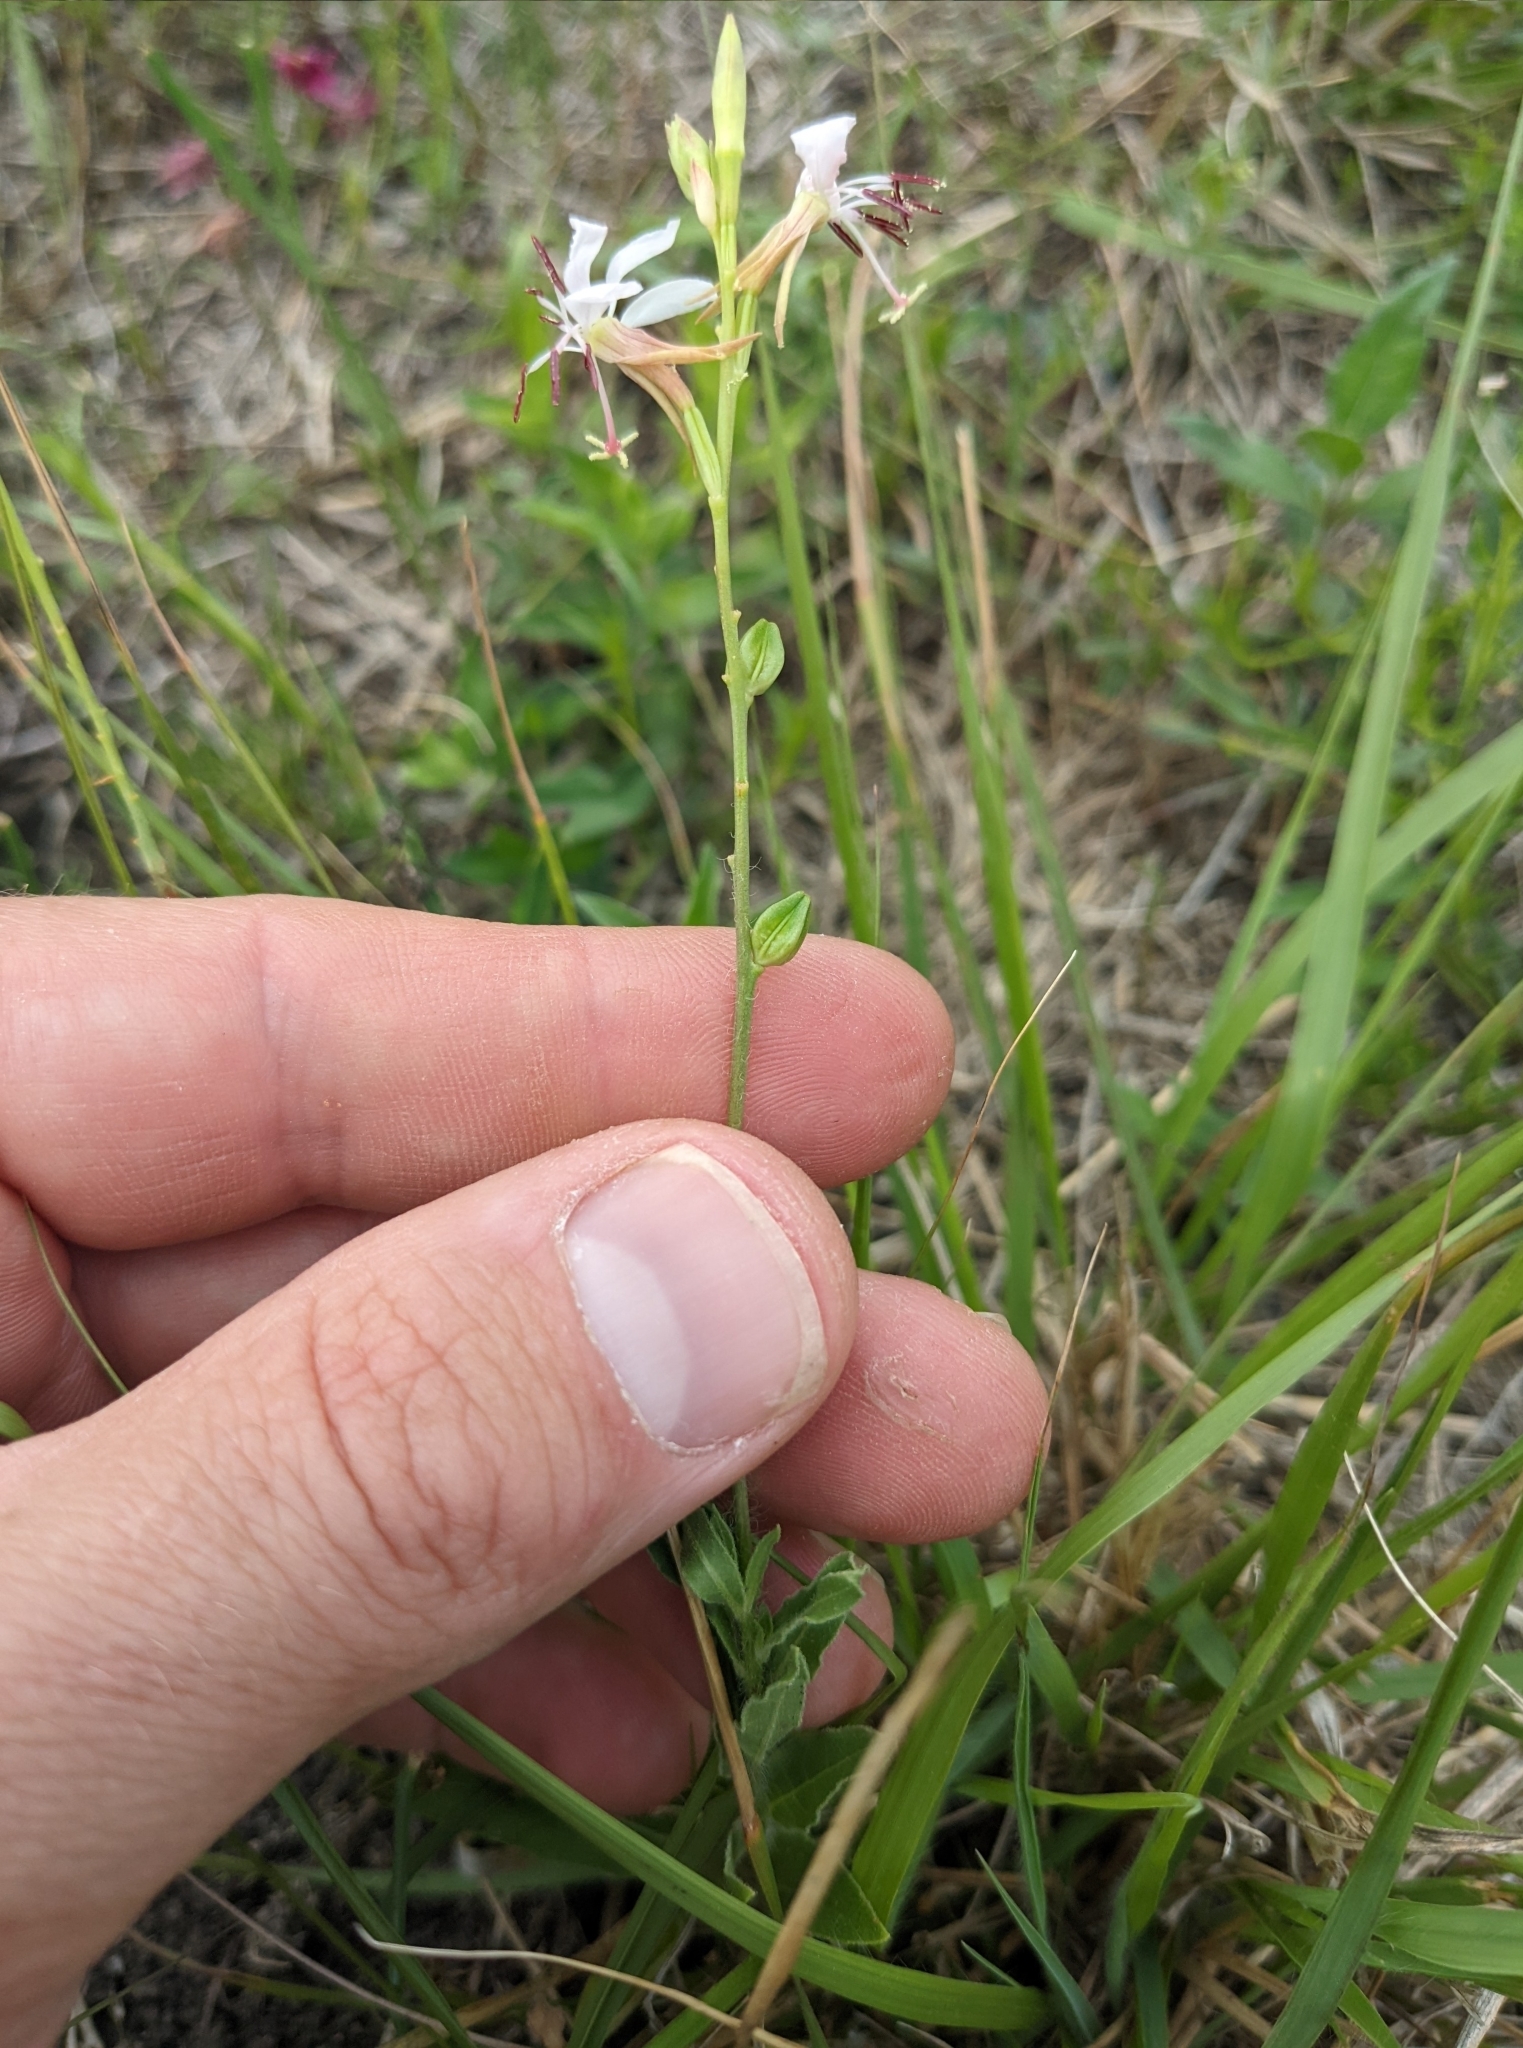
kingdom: Plantae
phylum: Tracheophyta
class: Magnoliopsida
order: Myrtales
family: Onagraceae
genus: Oenothera
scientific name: Oenothera suffulta
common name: Kisses
